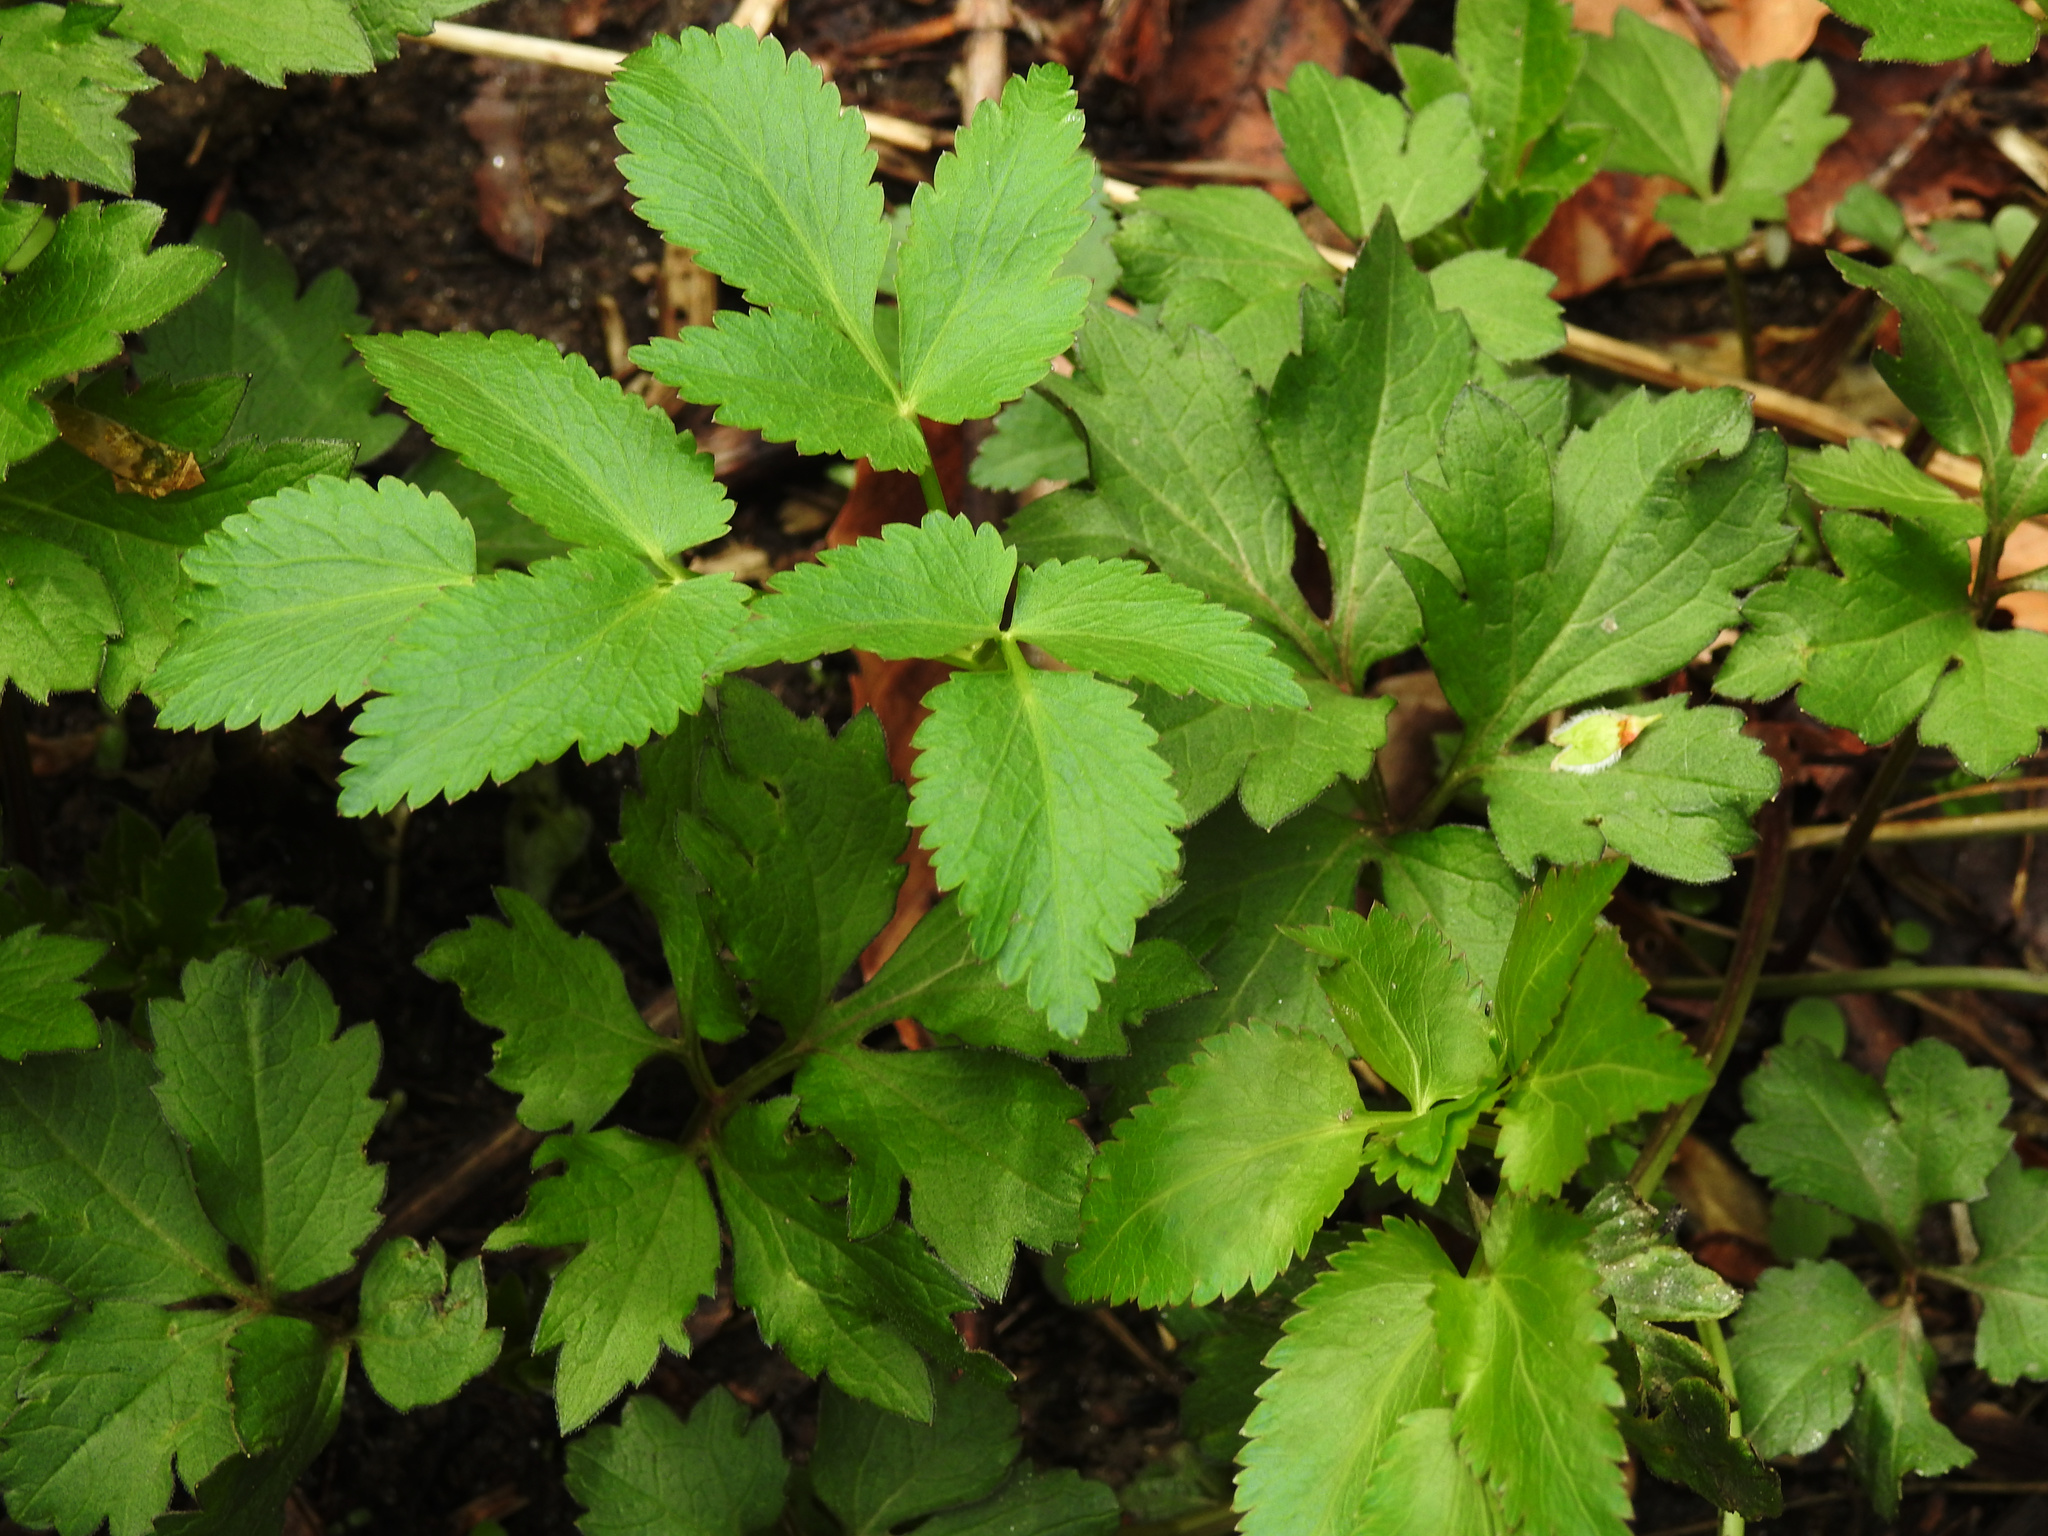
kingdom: Plantae
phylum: Tracheophyta
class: Magnoliopsida
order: Apiales
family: Apiaceae
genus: Aegopodium
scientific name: Aegopodium podagraria
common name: Ground-elder
